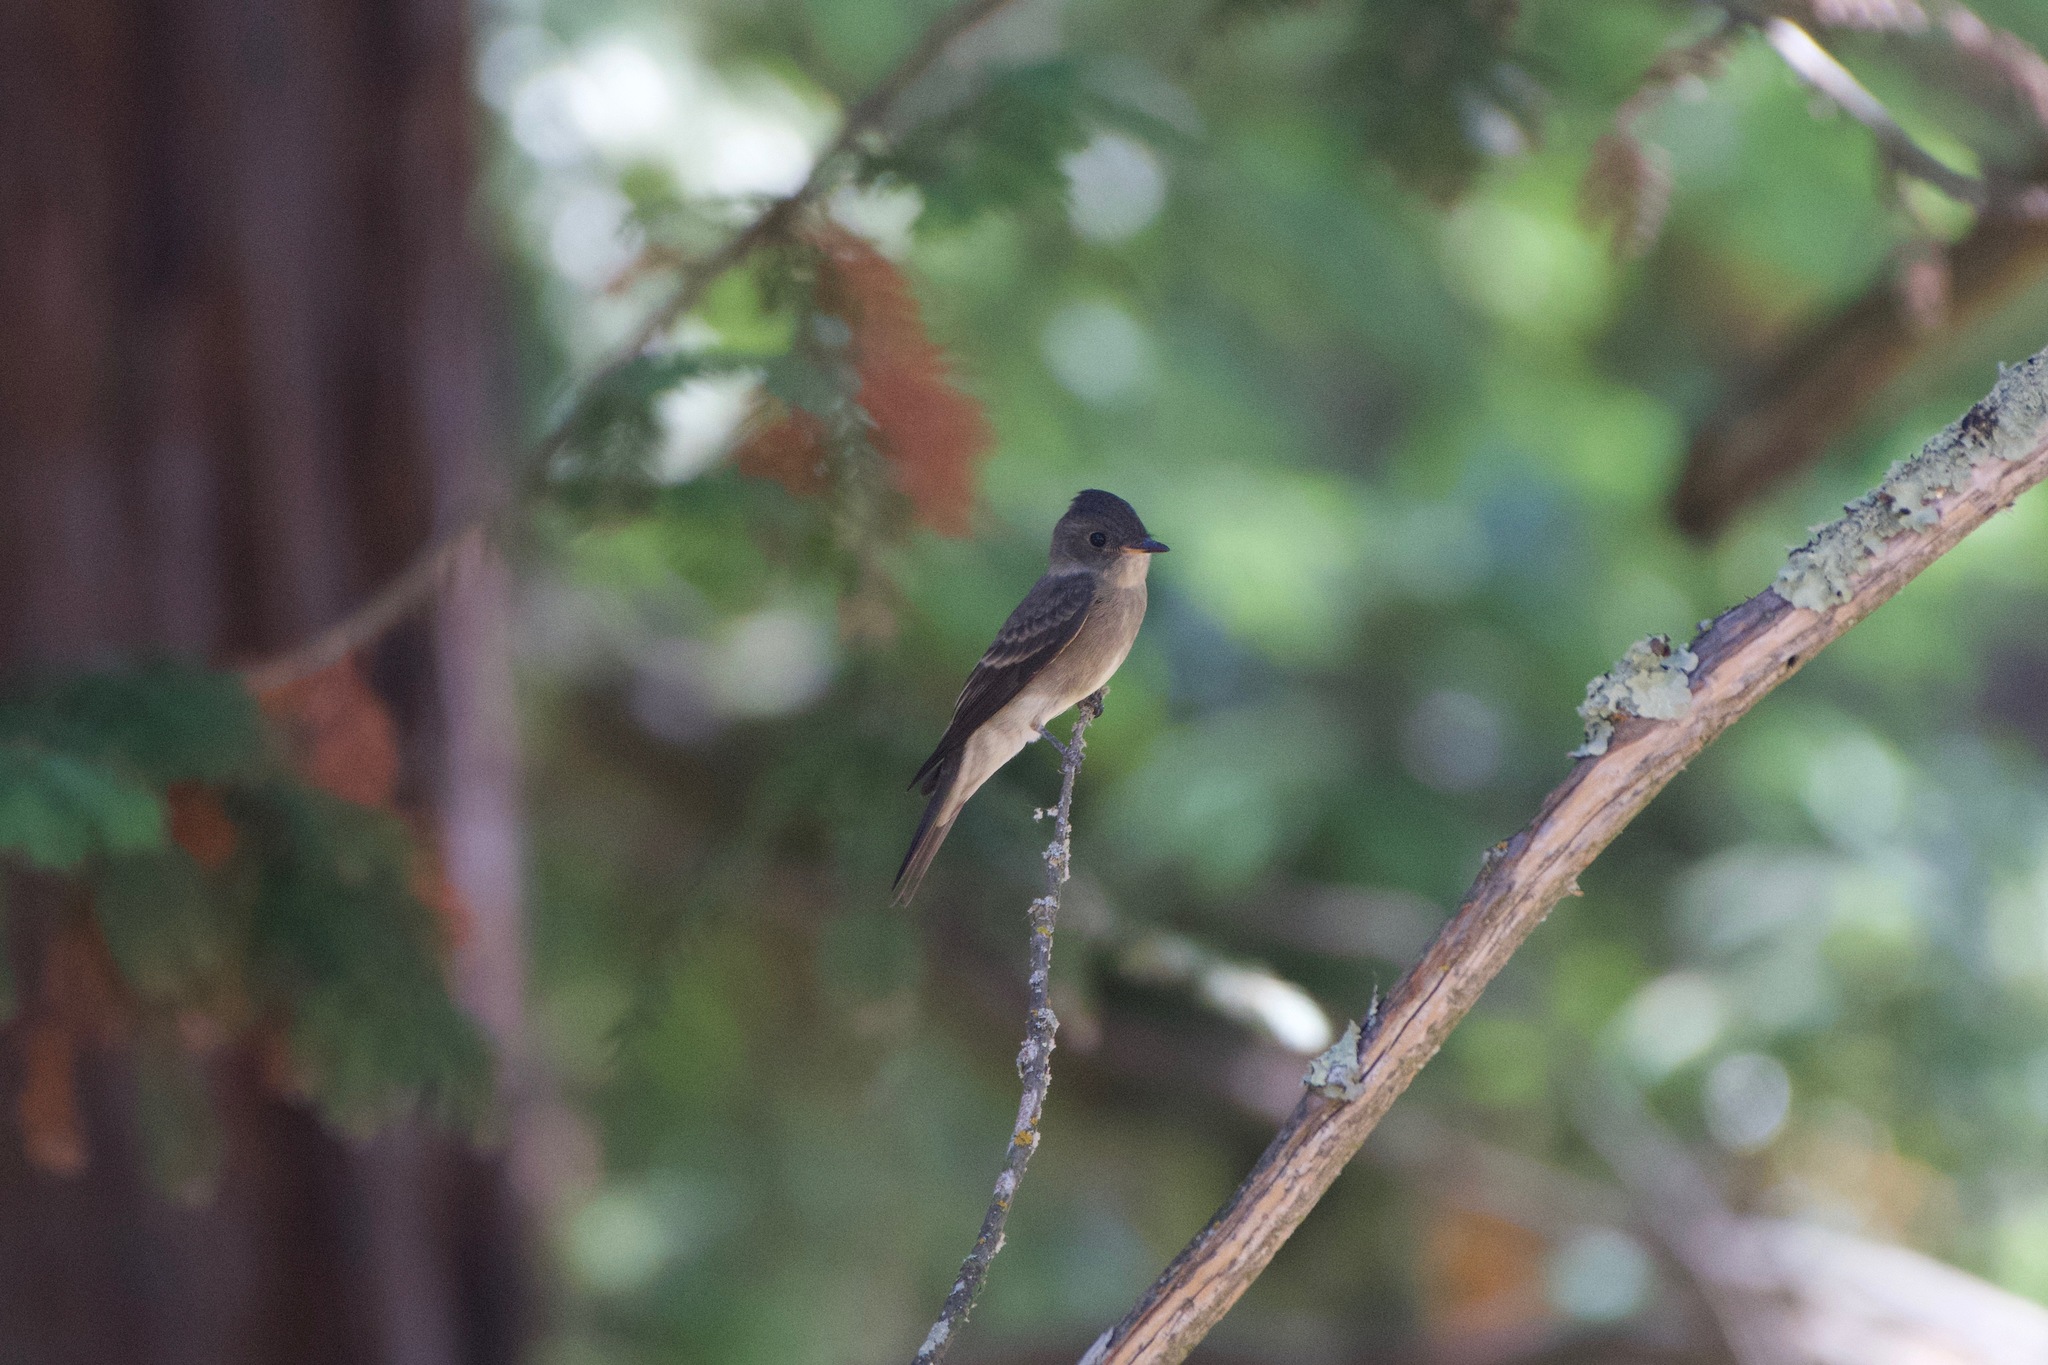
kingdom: Animalia
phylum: Chordata
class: Aves
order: Passeriformes
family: Tyrannidae
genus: Contopus
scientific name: Contopus sordidulus
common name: Western wood-pewee
